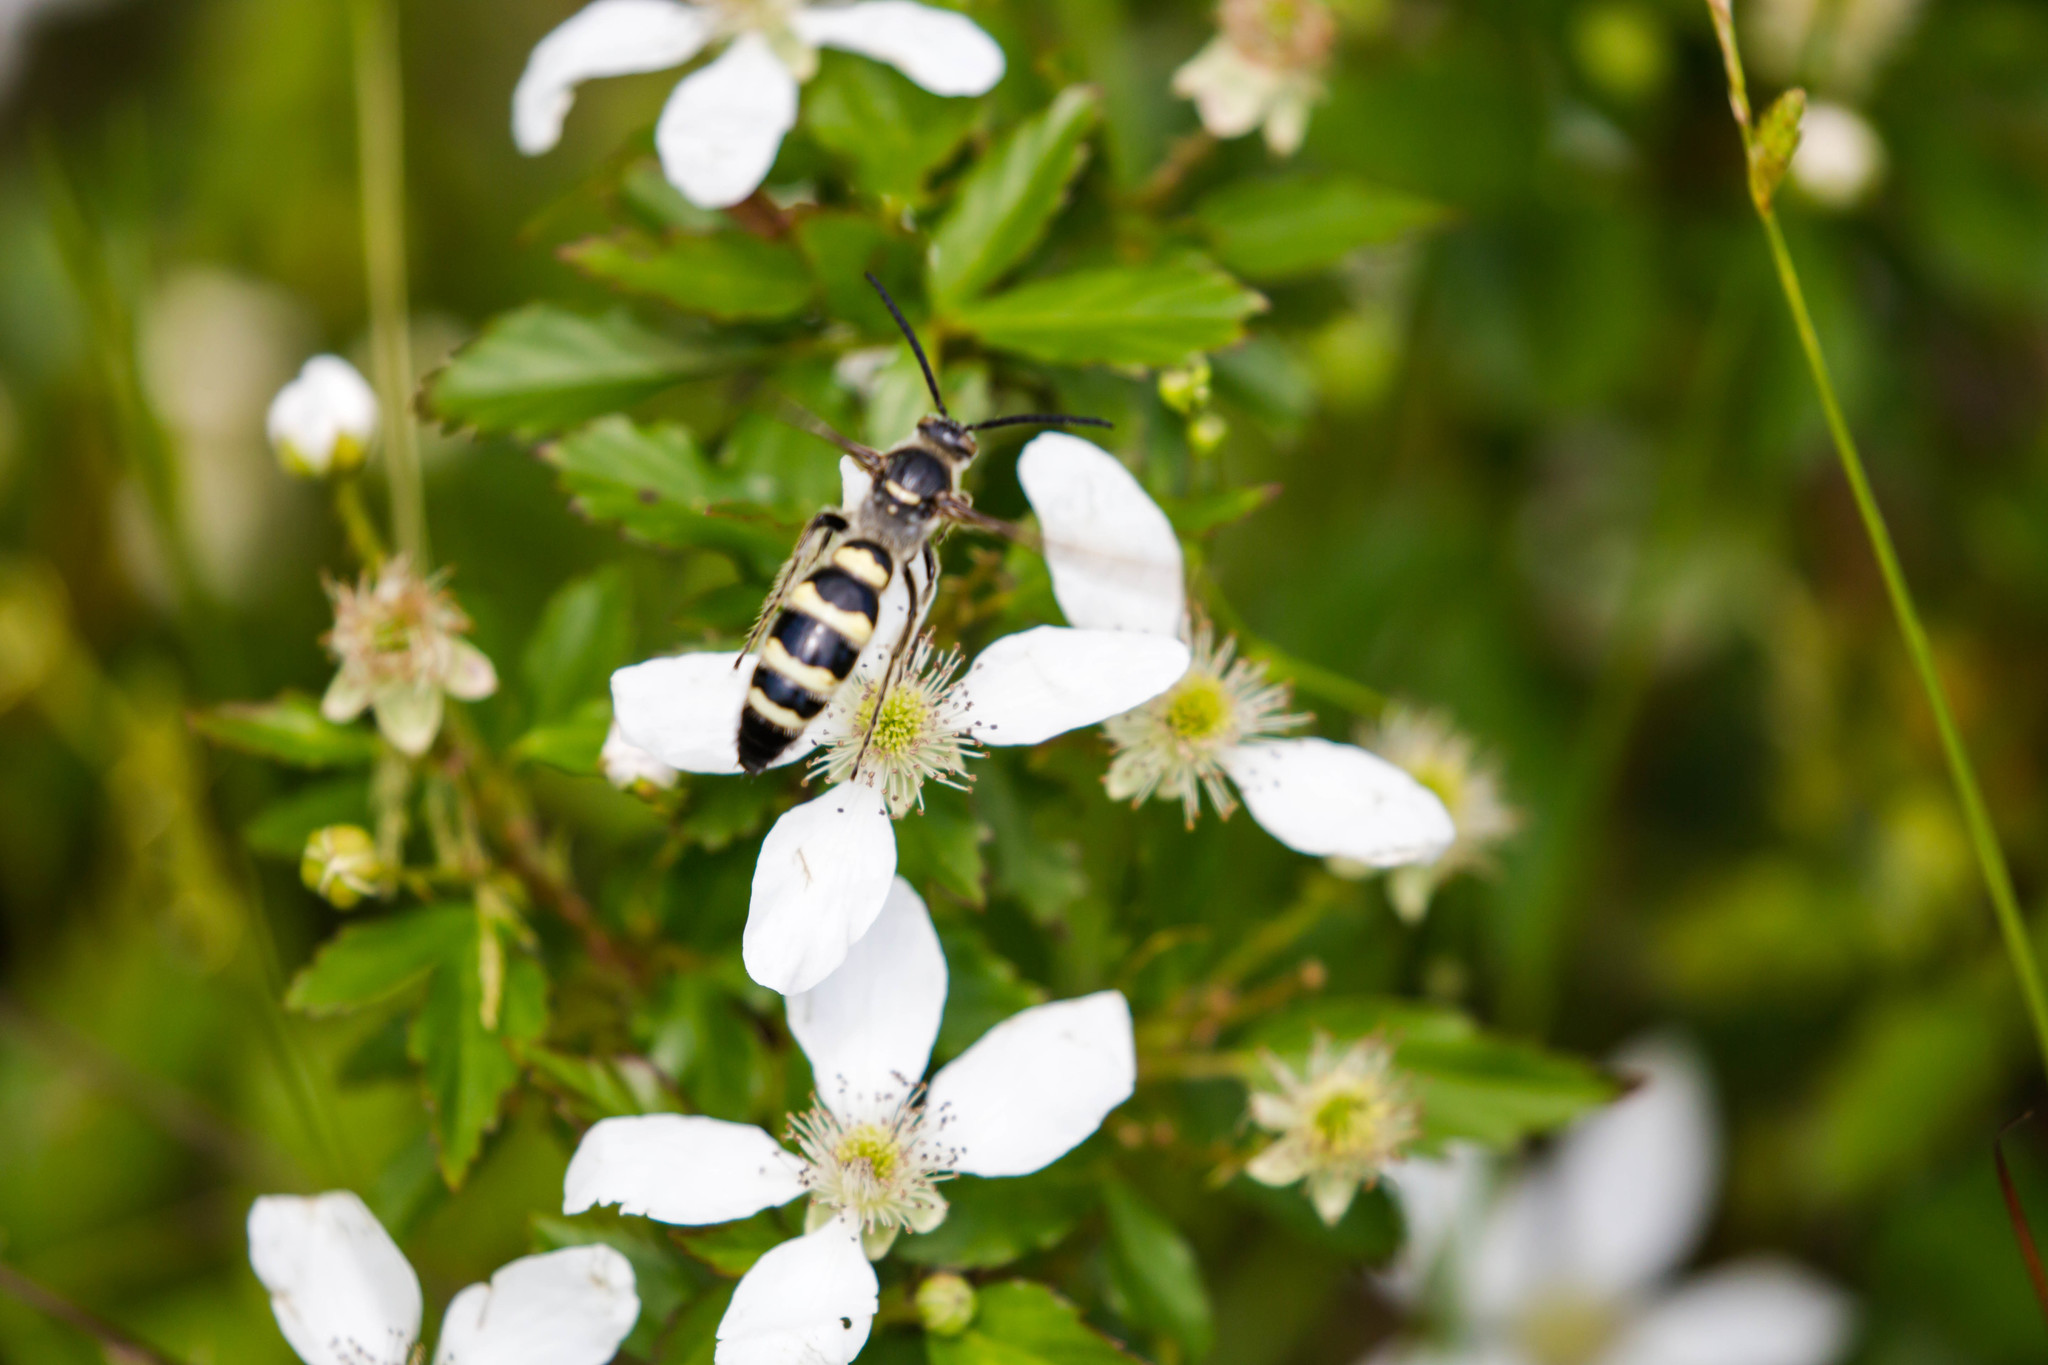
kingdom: Animalia
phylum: Arthropoda
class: Insecta
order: Hymenoptera
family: Scoliidae
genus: Dielis
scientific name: Dielis
